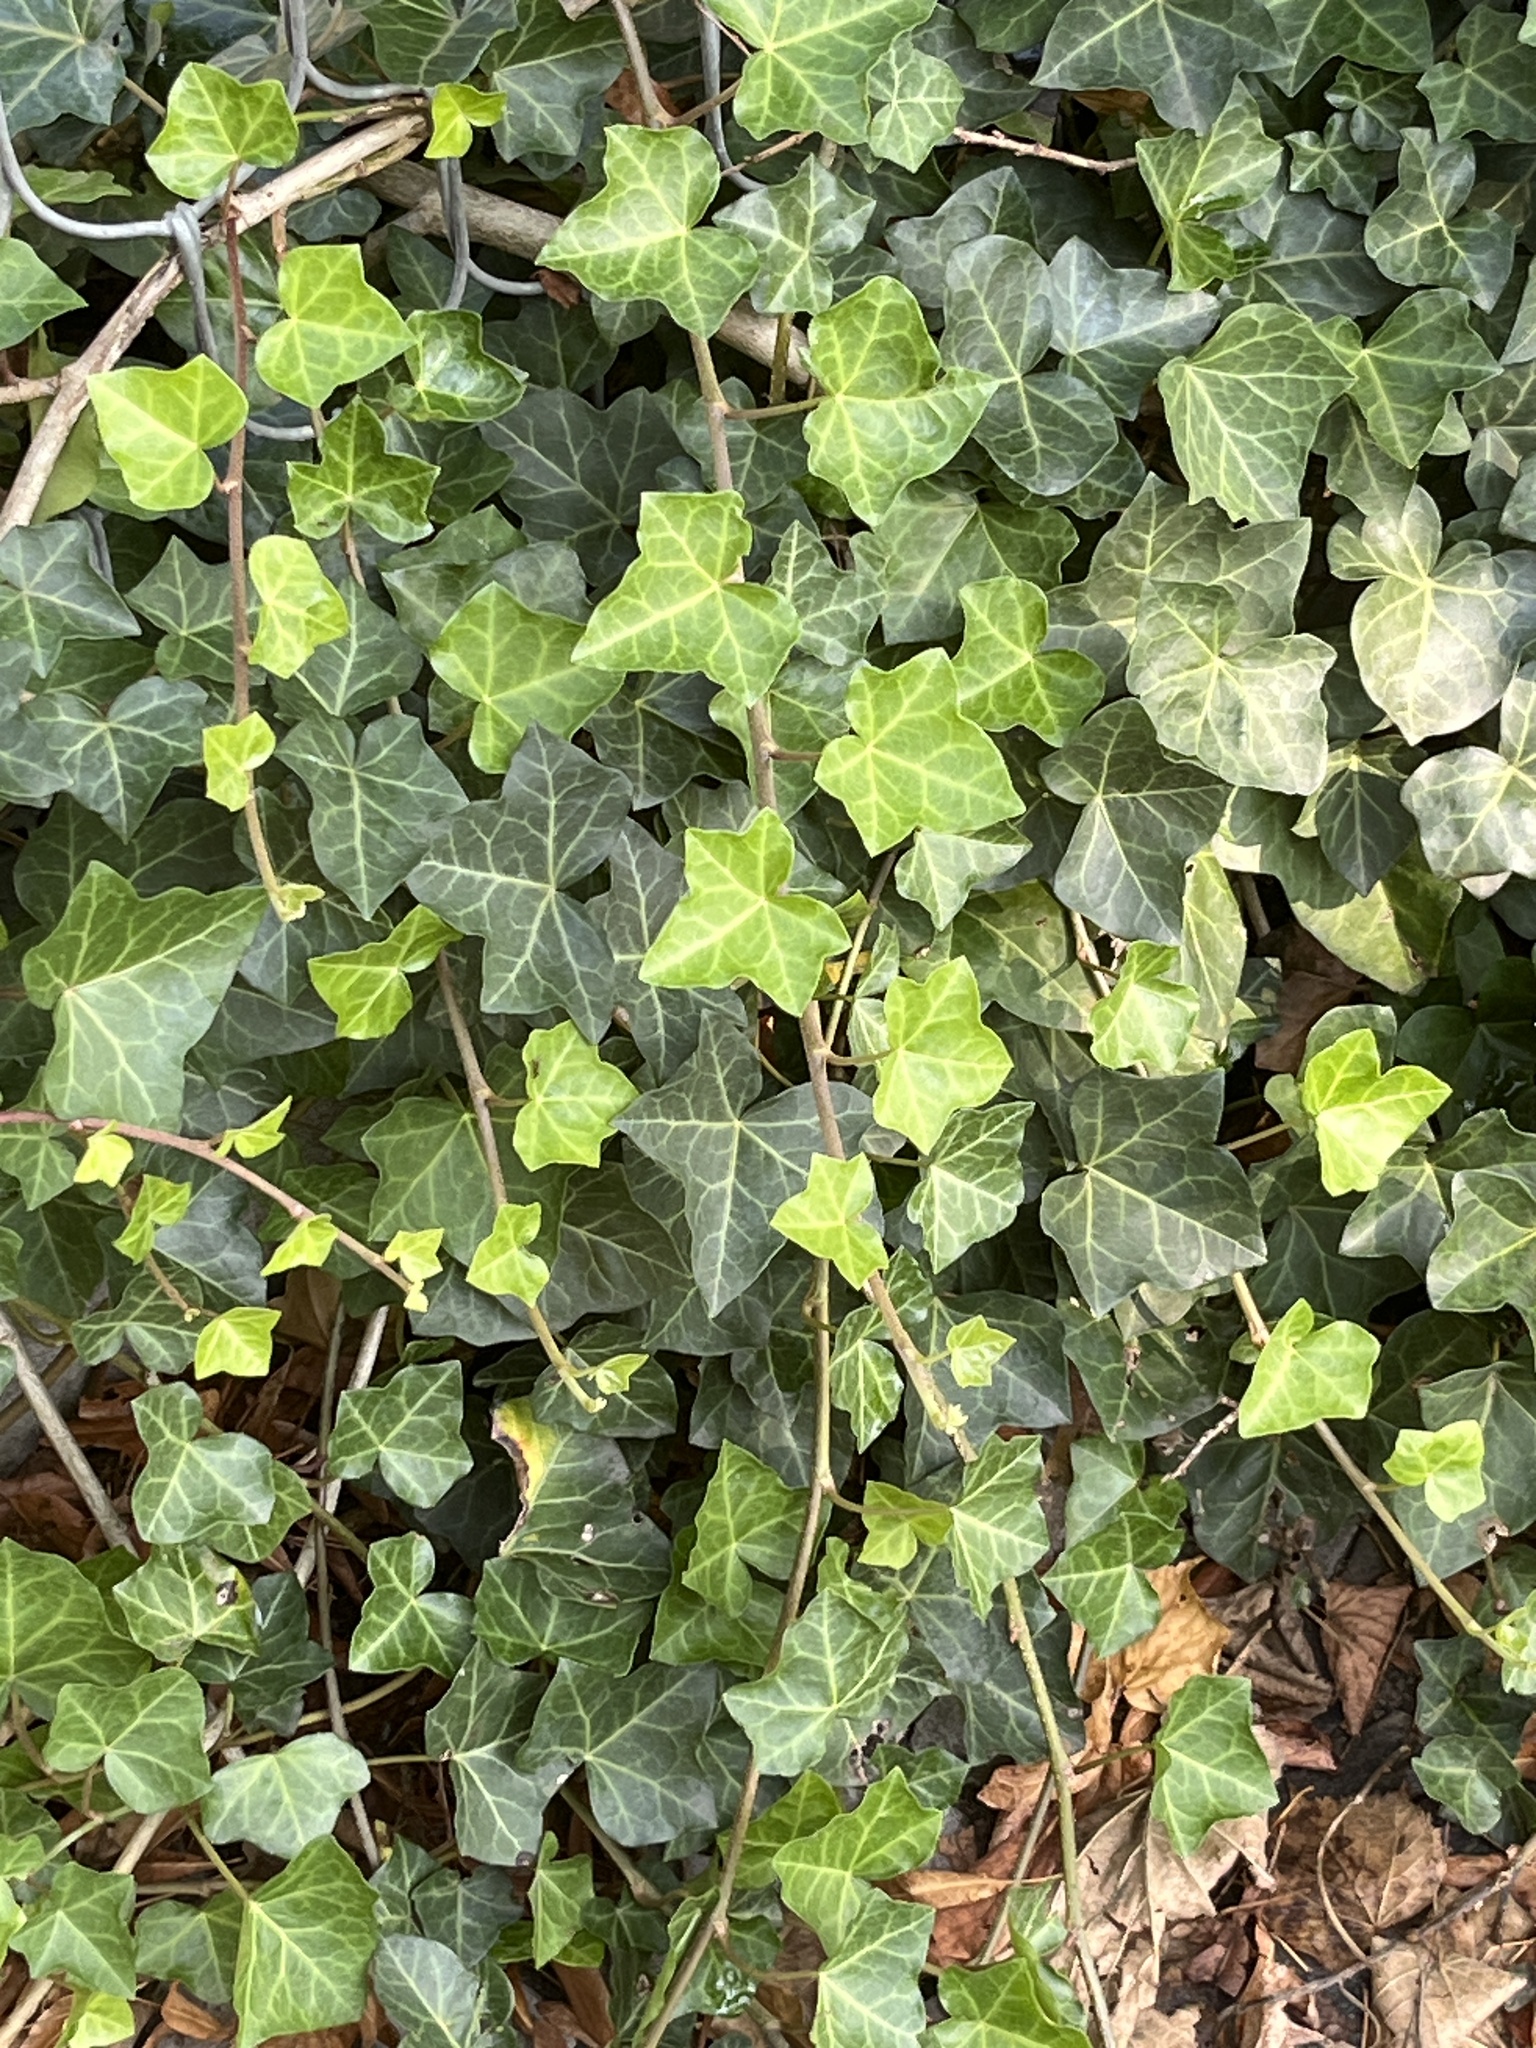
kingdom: Plantae
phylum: Tracheophyta
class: Magnoliopsida
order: Apiales
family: Araliaceae
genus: Hedera
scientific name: Hedera helix
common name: Ivy
